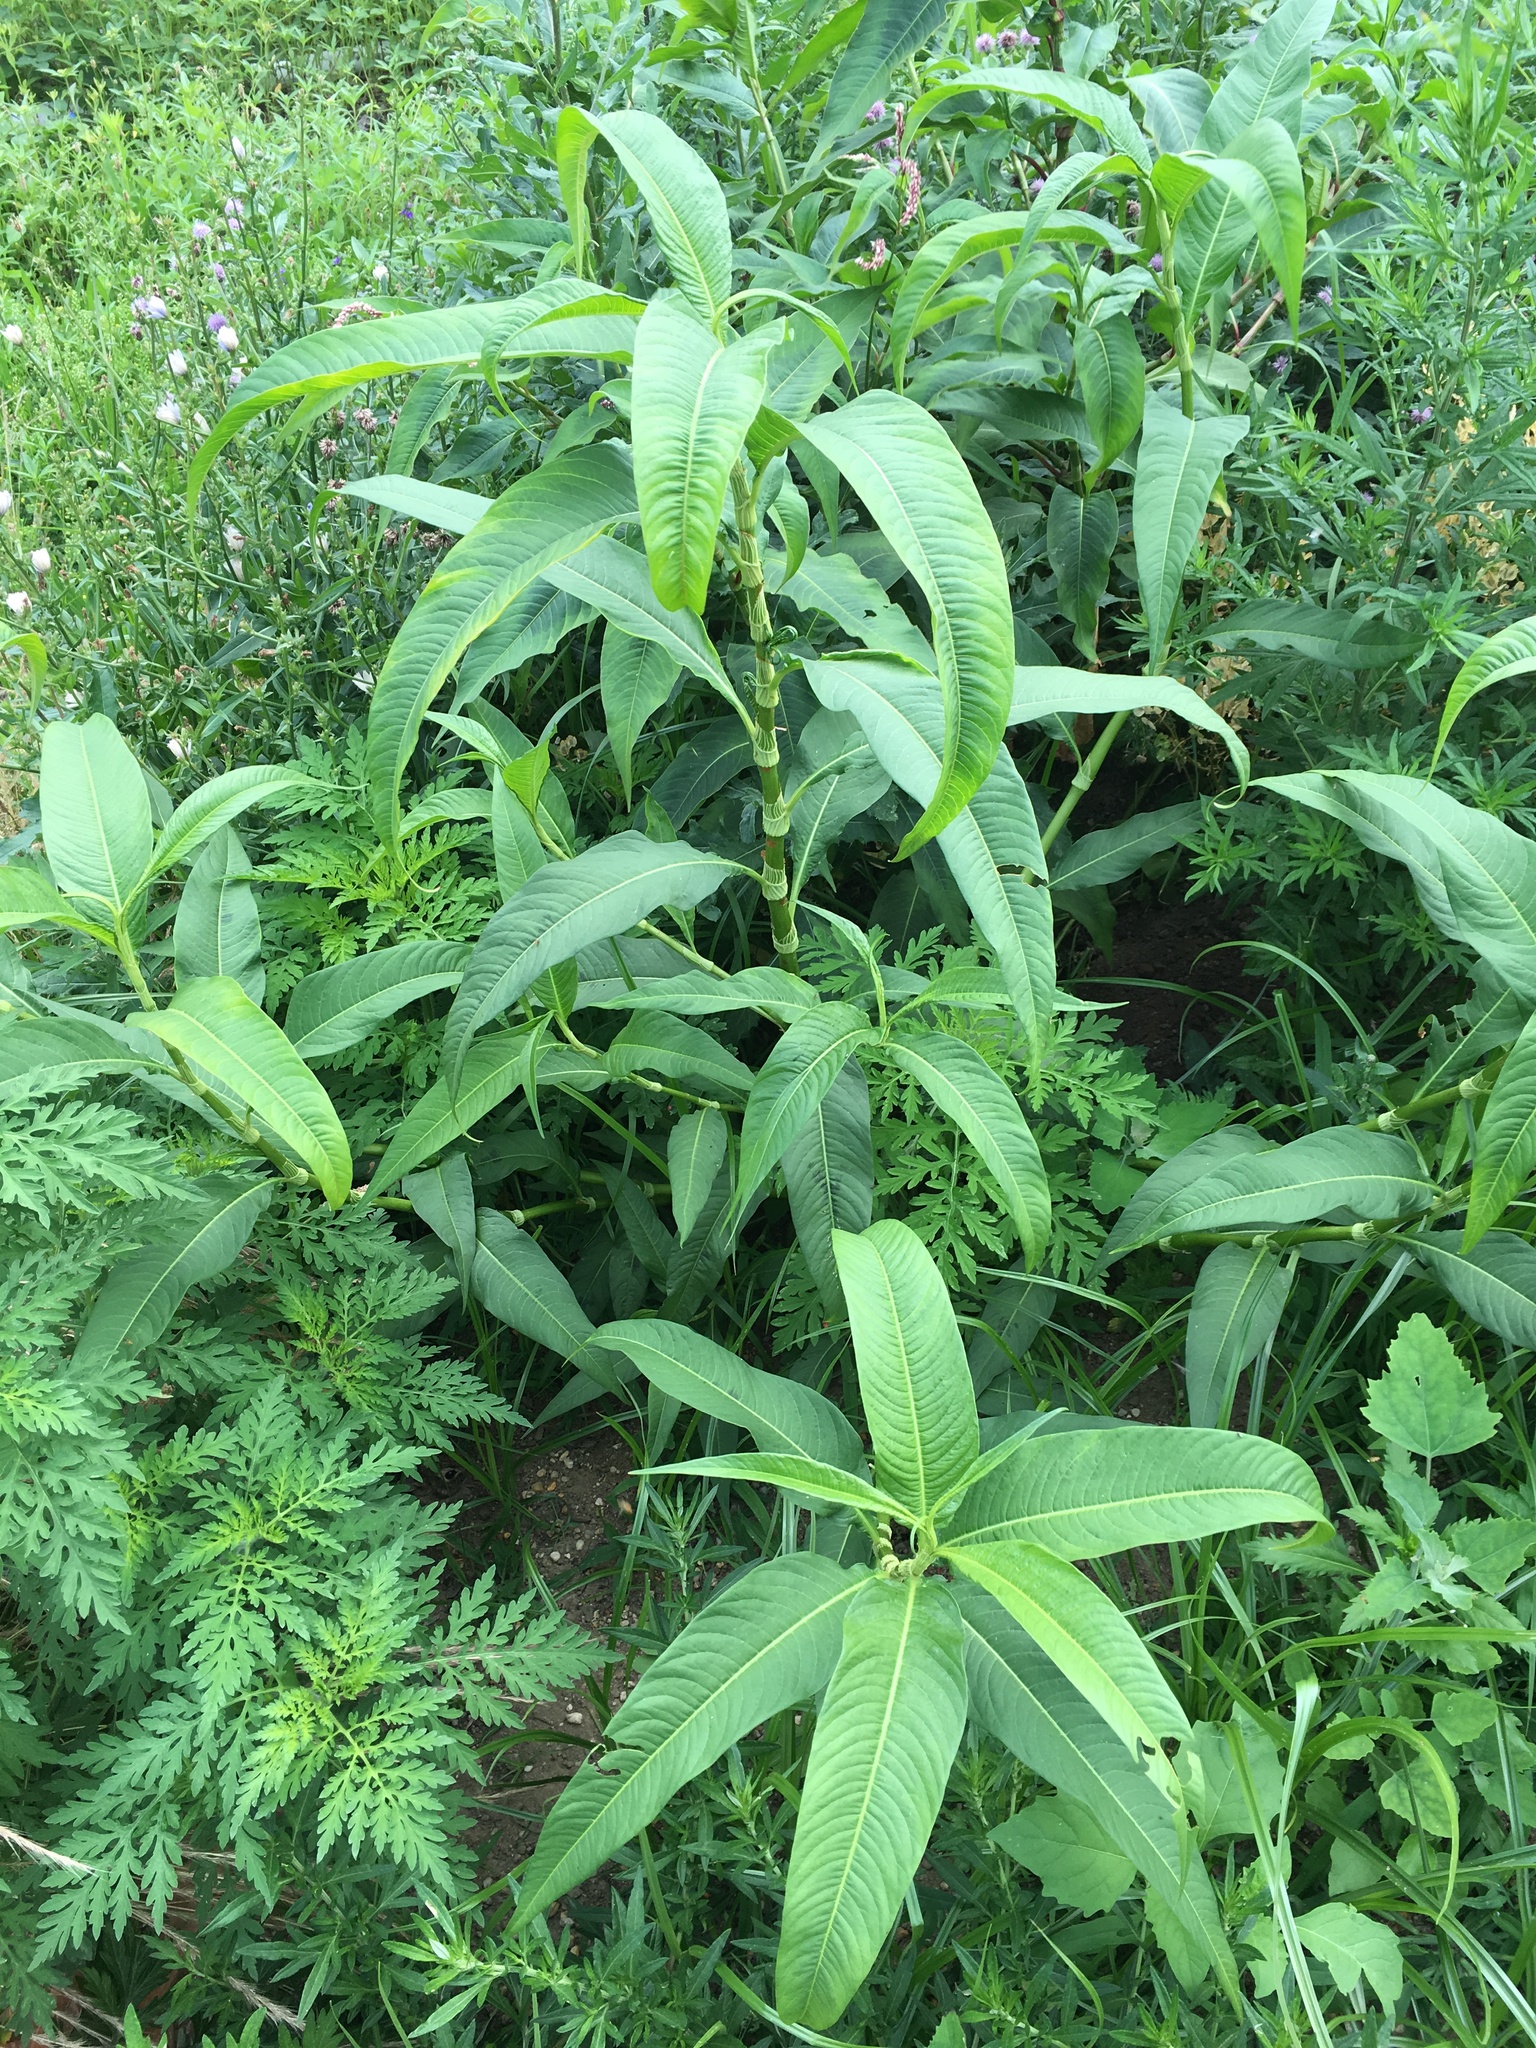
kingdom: Plantae
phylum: Tracheophyta
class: Magnoliopsida
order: Caryophyllales
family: Polygonaceae
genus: Persicaria
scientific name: Persicaria lapathifolia
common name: Curlytop knotweed
